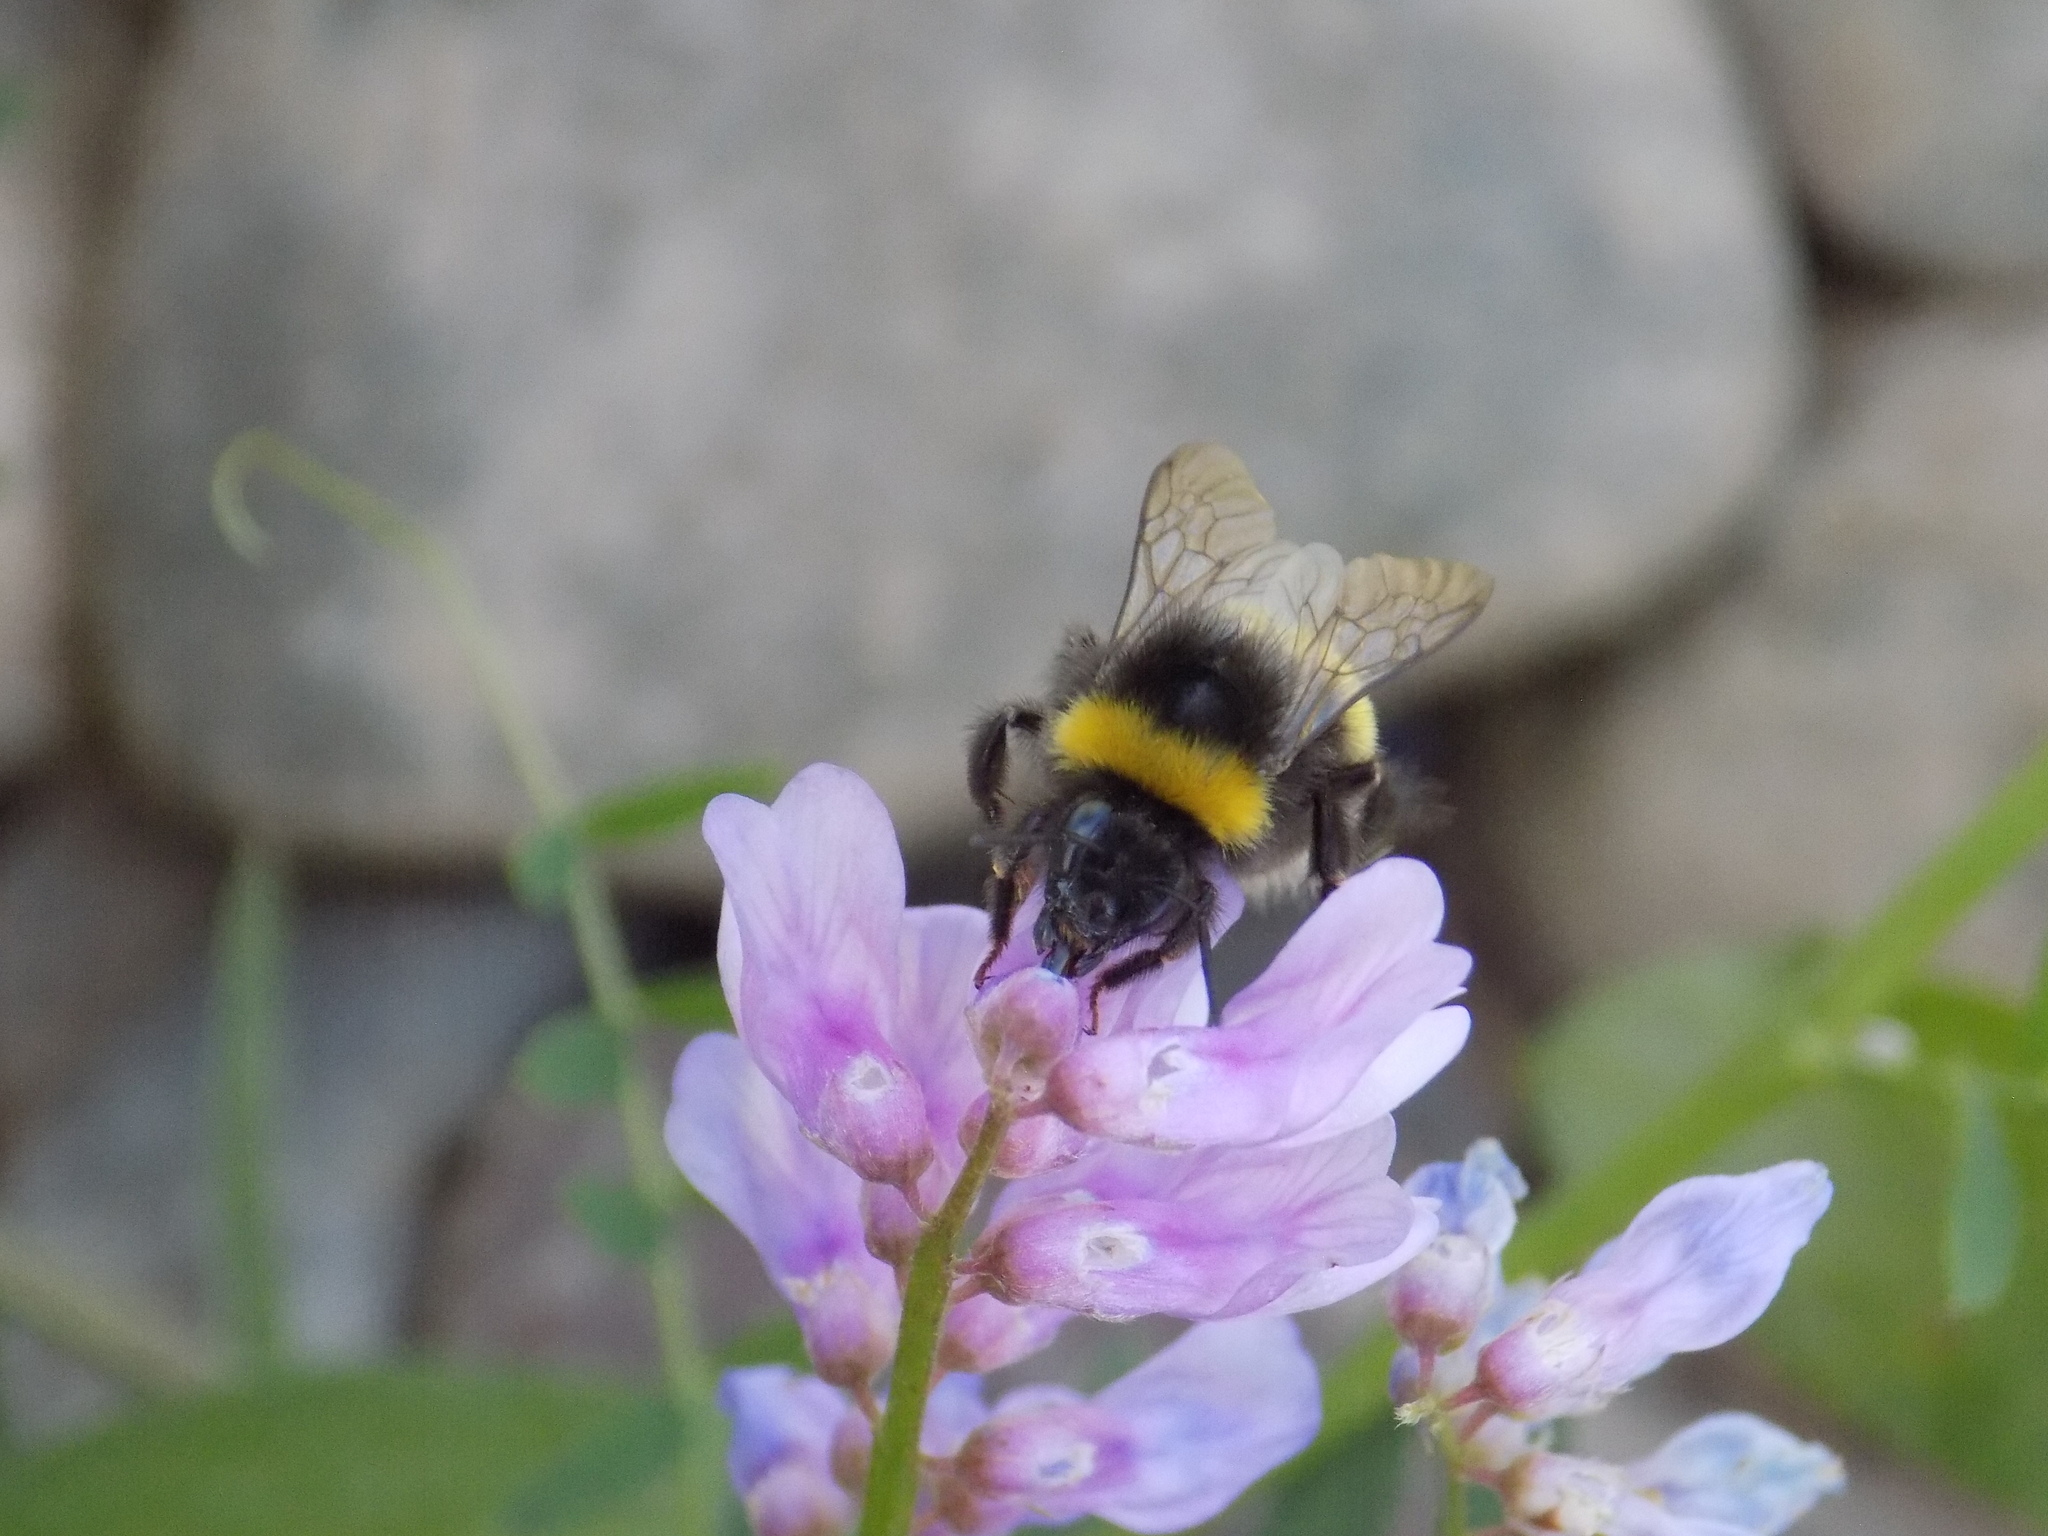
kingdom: Animalia
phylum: Arthropoda
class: Insecta
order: Hymenoptera
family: Apidae
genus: Bombus
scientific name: Bombus
